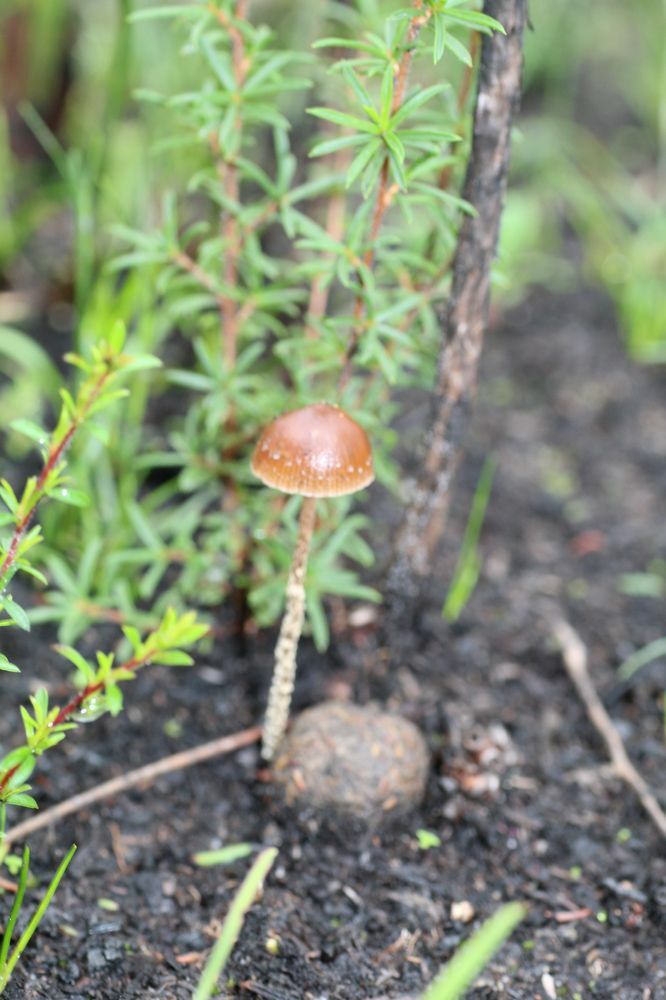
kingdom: Fungi
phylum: Basidiomycota
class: Agaricomycetes
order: Agaricales
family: Strophariaceae
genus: Deconica
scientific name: Deconica coprophila
